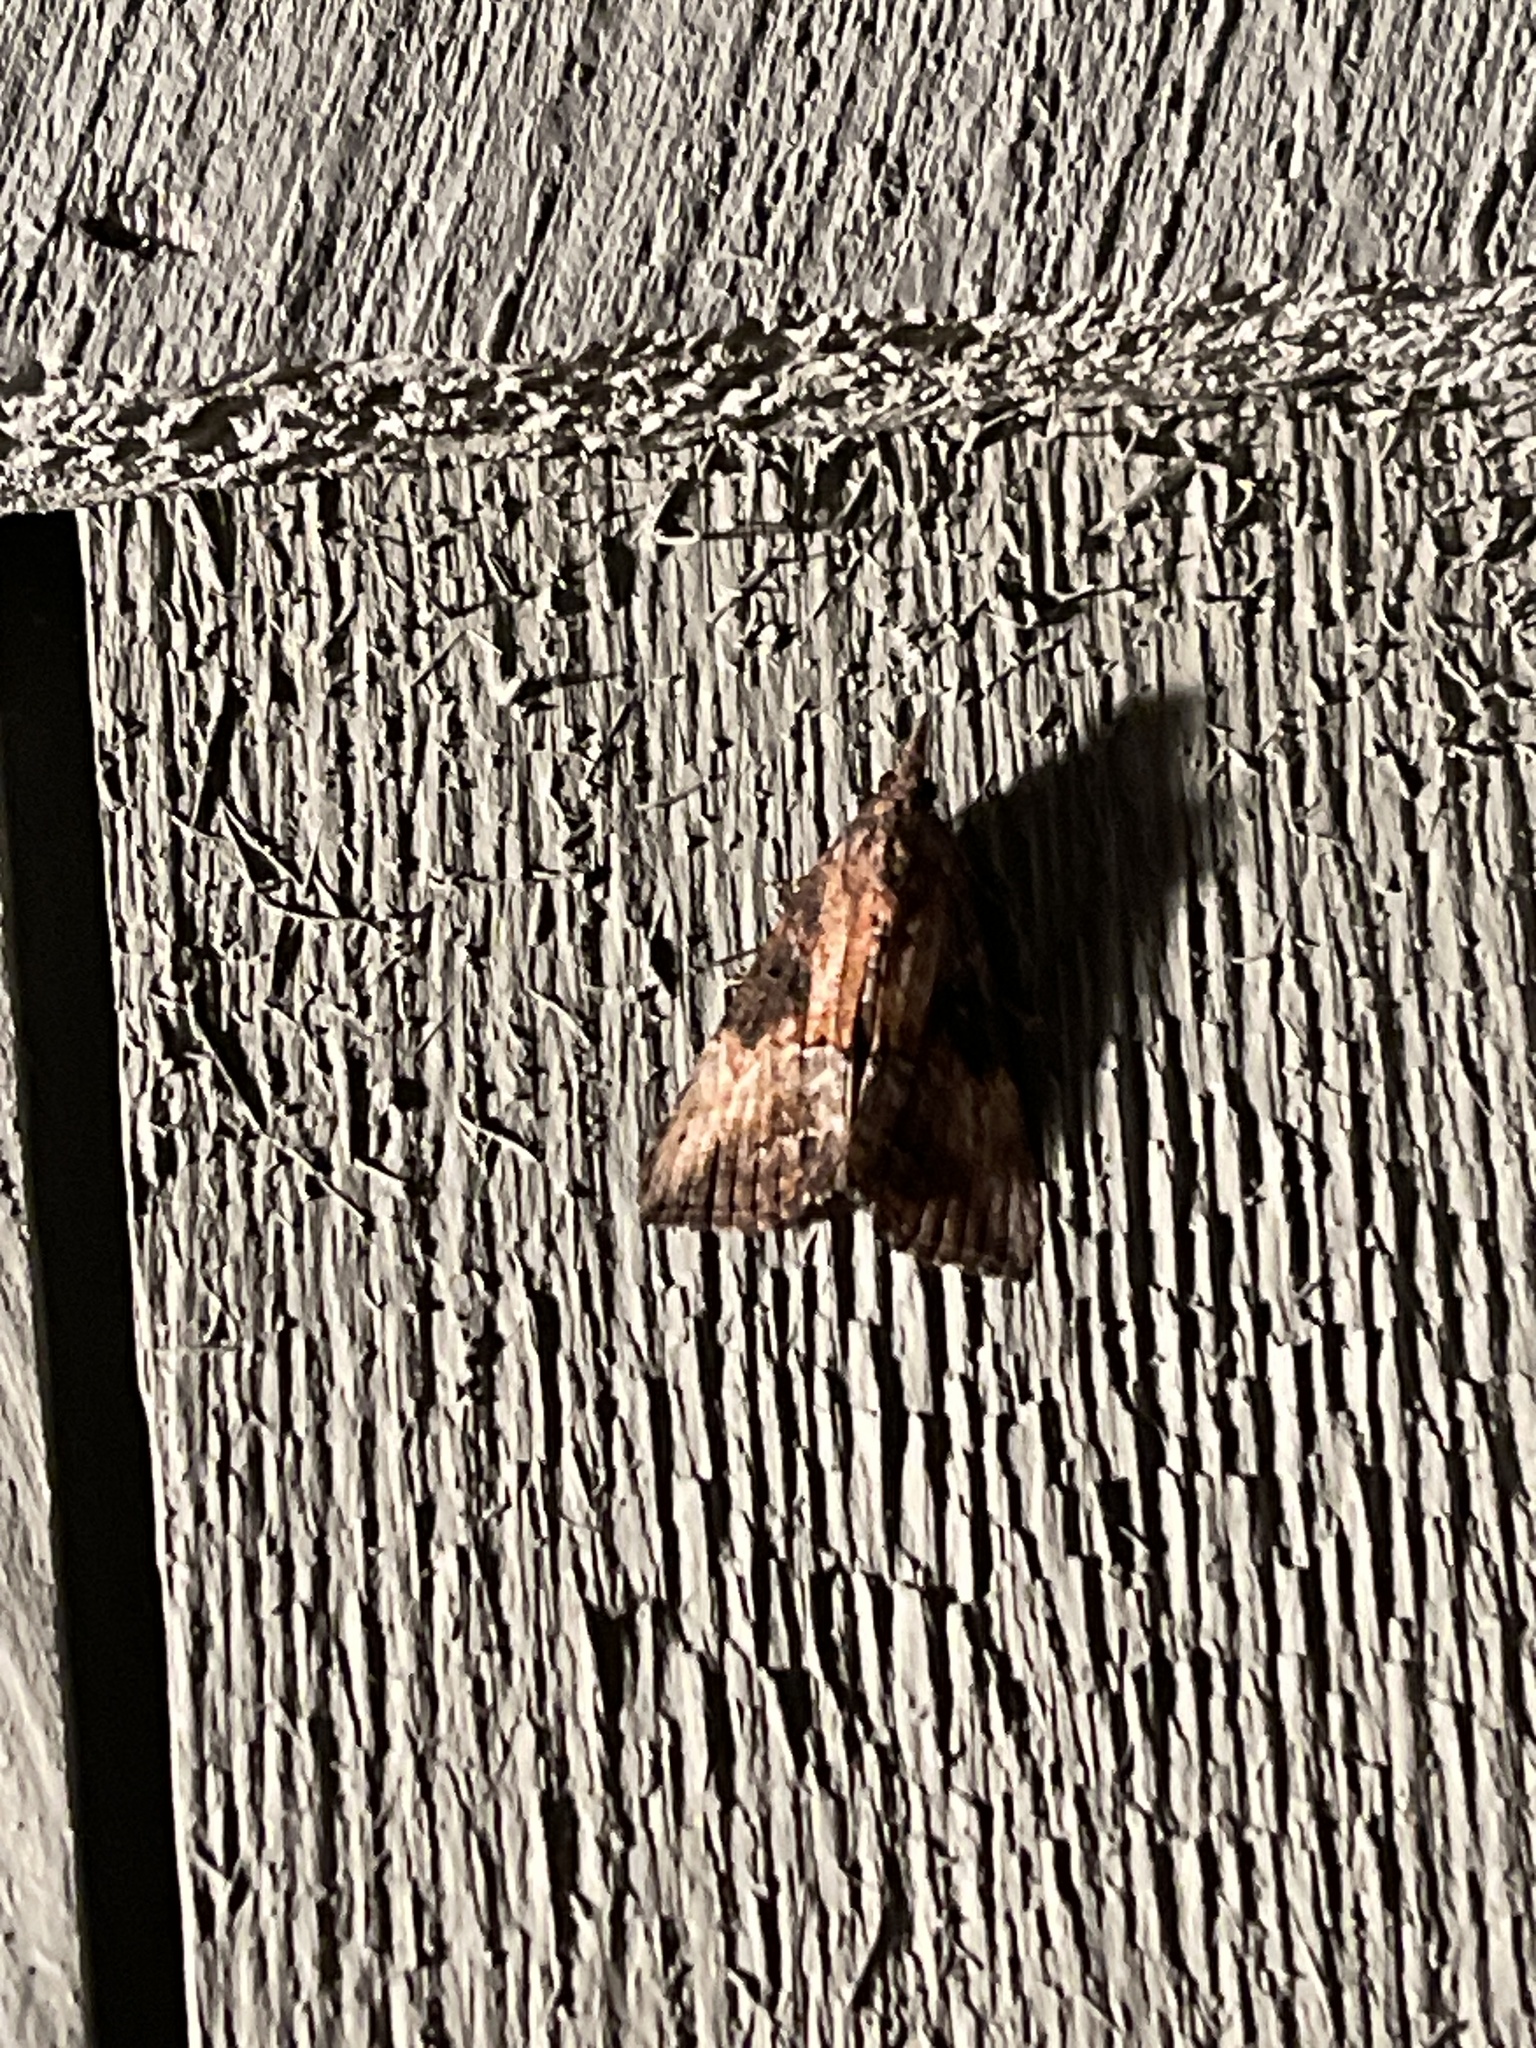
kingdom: Animalia
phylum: Arthropoda
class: Insecta
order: Lepidoptera
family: Erebidae
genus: Hypena
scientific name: Hypena scabra
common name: Green cloverworm
